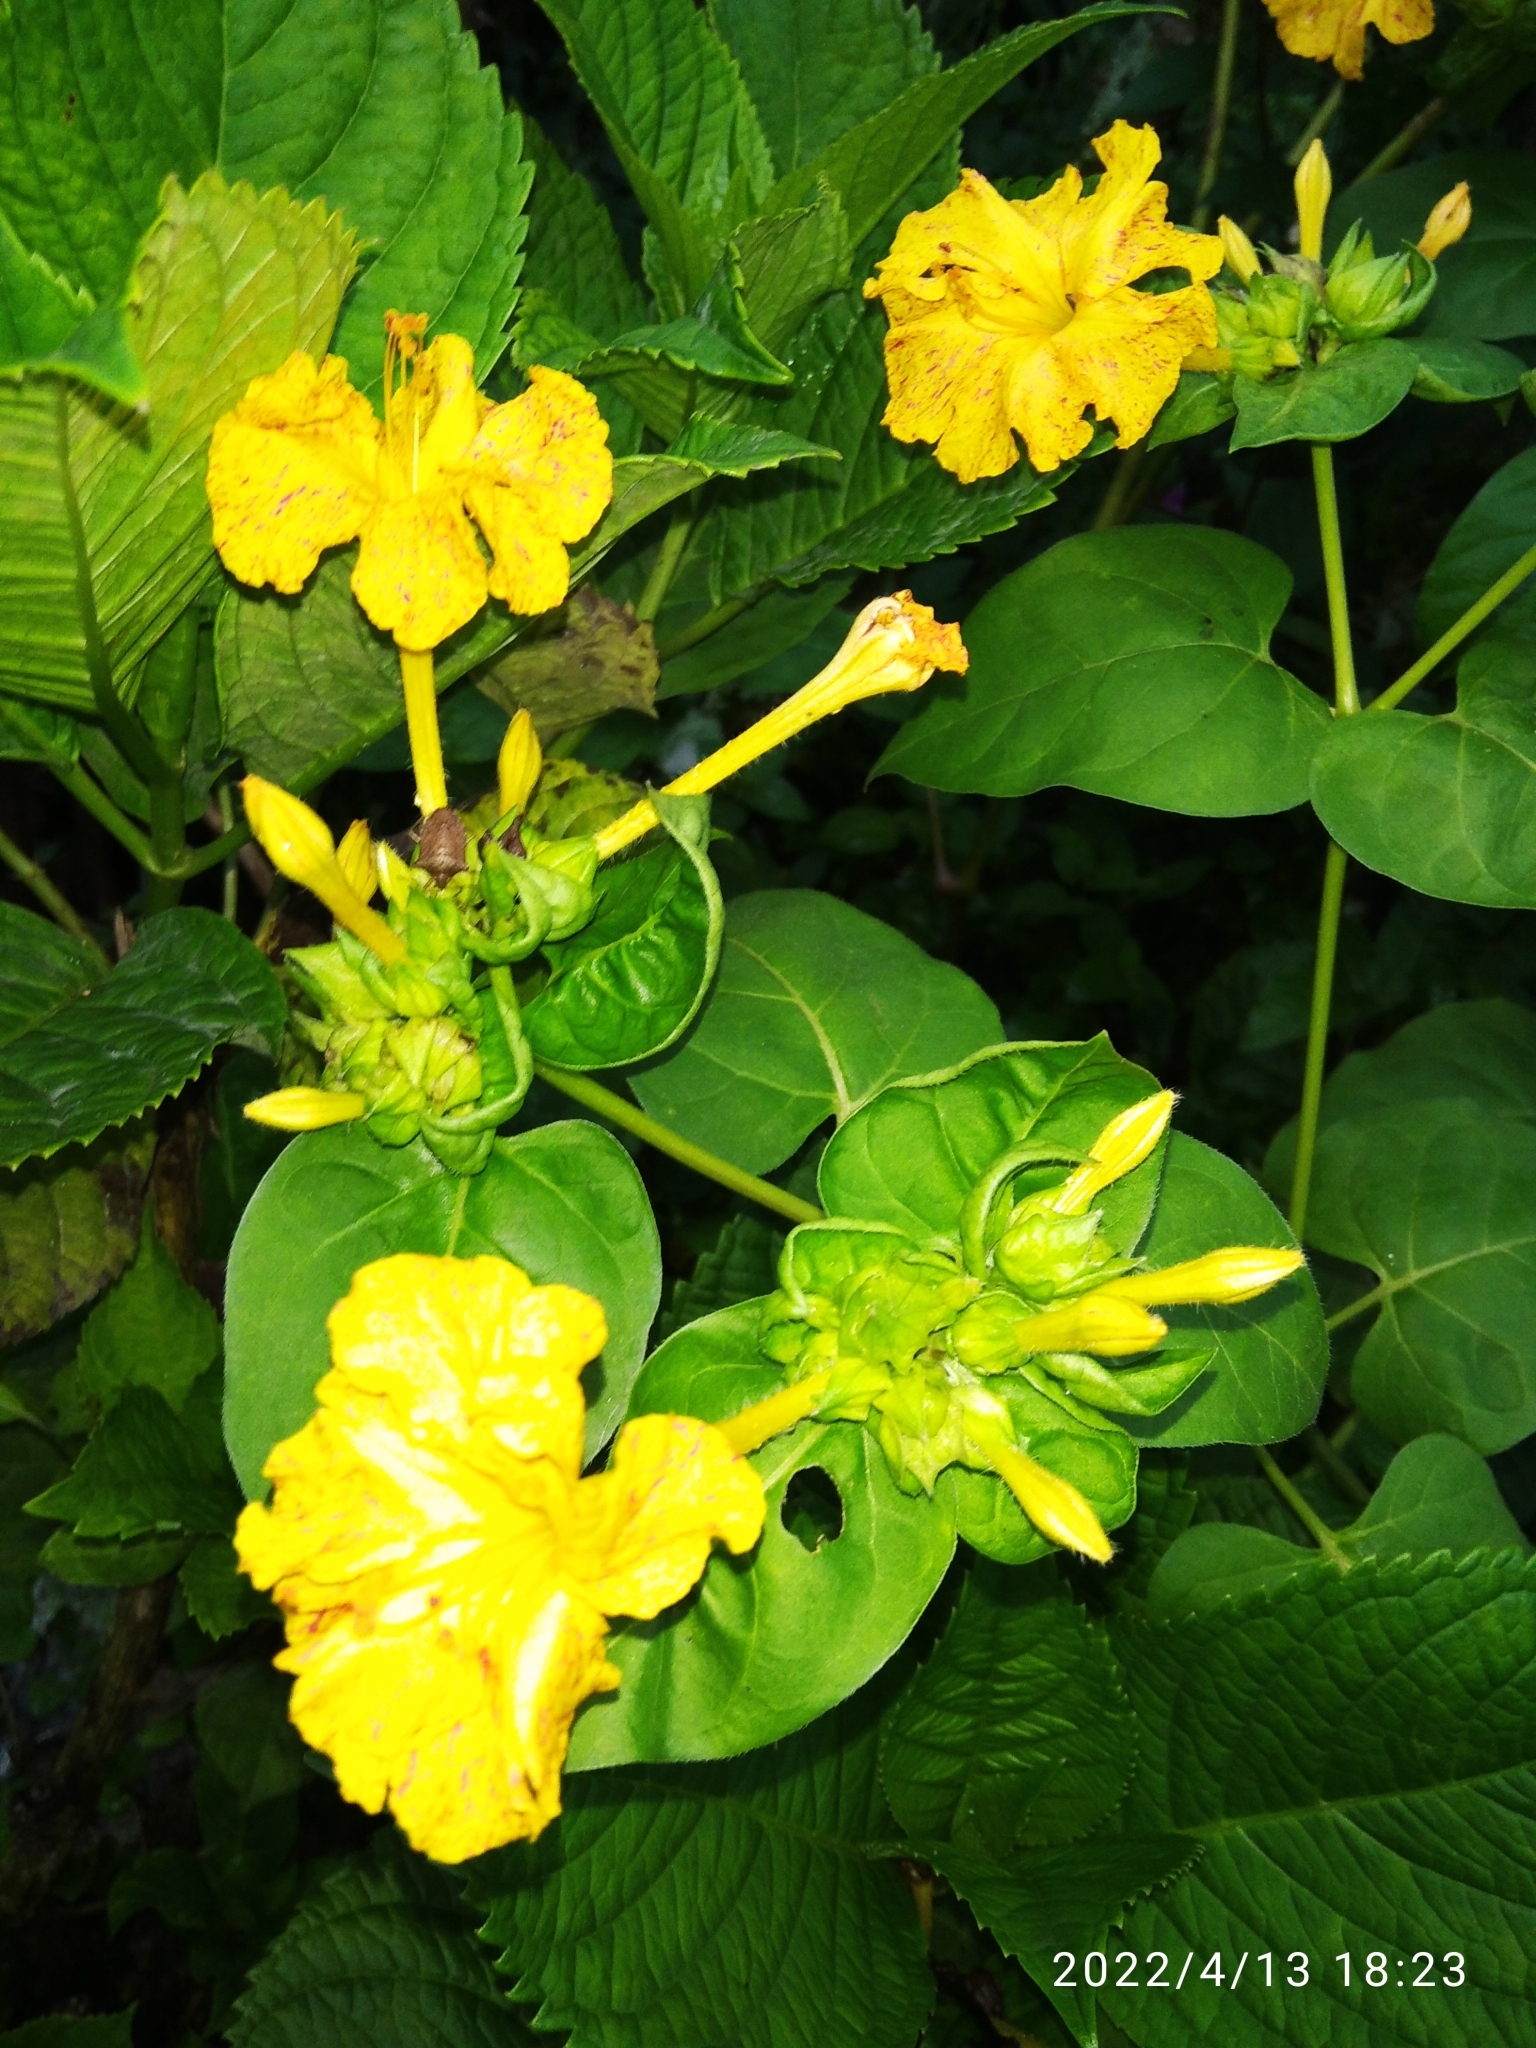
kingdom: Plantae
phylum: Tracheophyta
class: Magnoliopsida
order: Caryophyllales
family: Nyctaginaceae
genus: Mirabilis
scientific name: Mirabilis jalapa
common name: Marvel-of-peru
